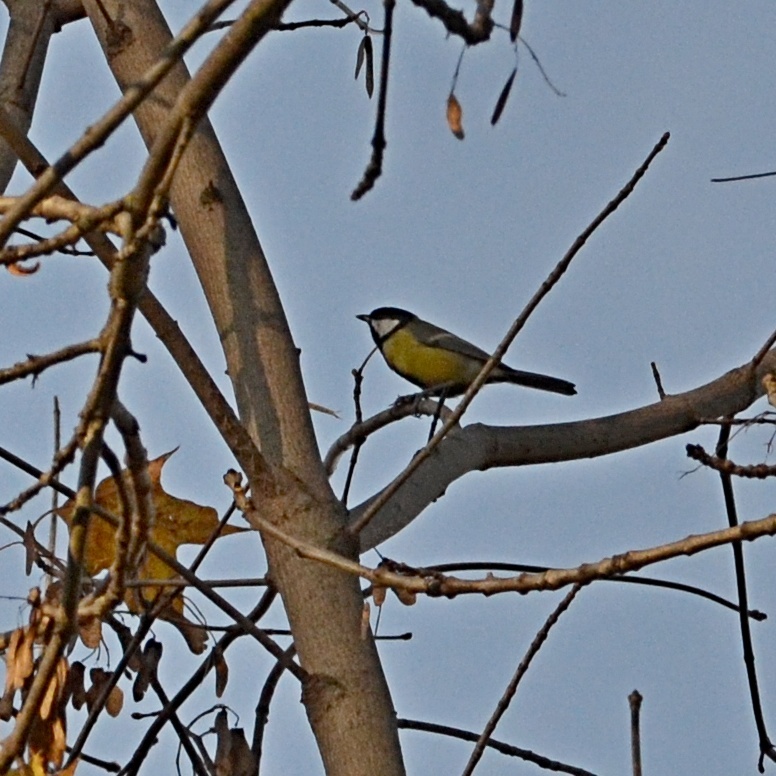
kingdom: Animalia
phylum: Chordata
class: Aves
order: Passeriformes
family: Paridae
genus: Parus
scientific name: Parus major
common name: Great tit
